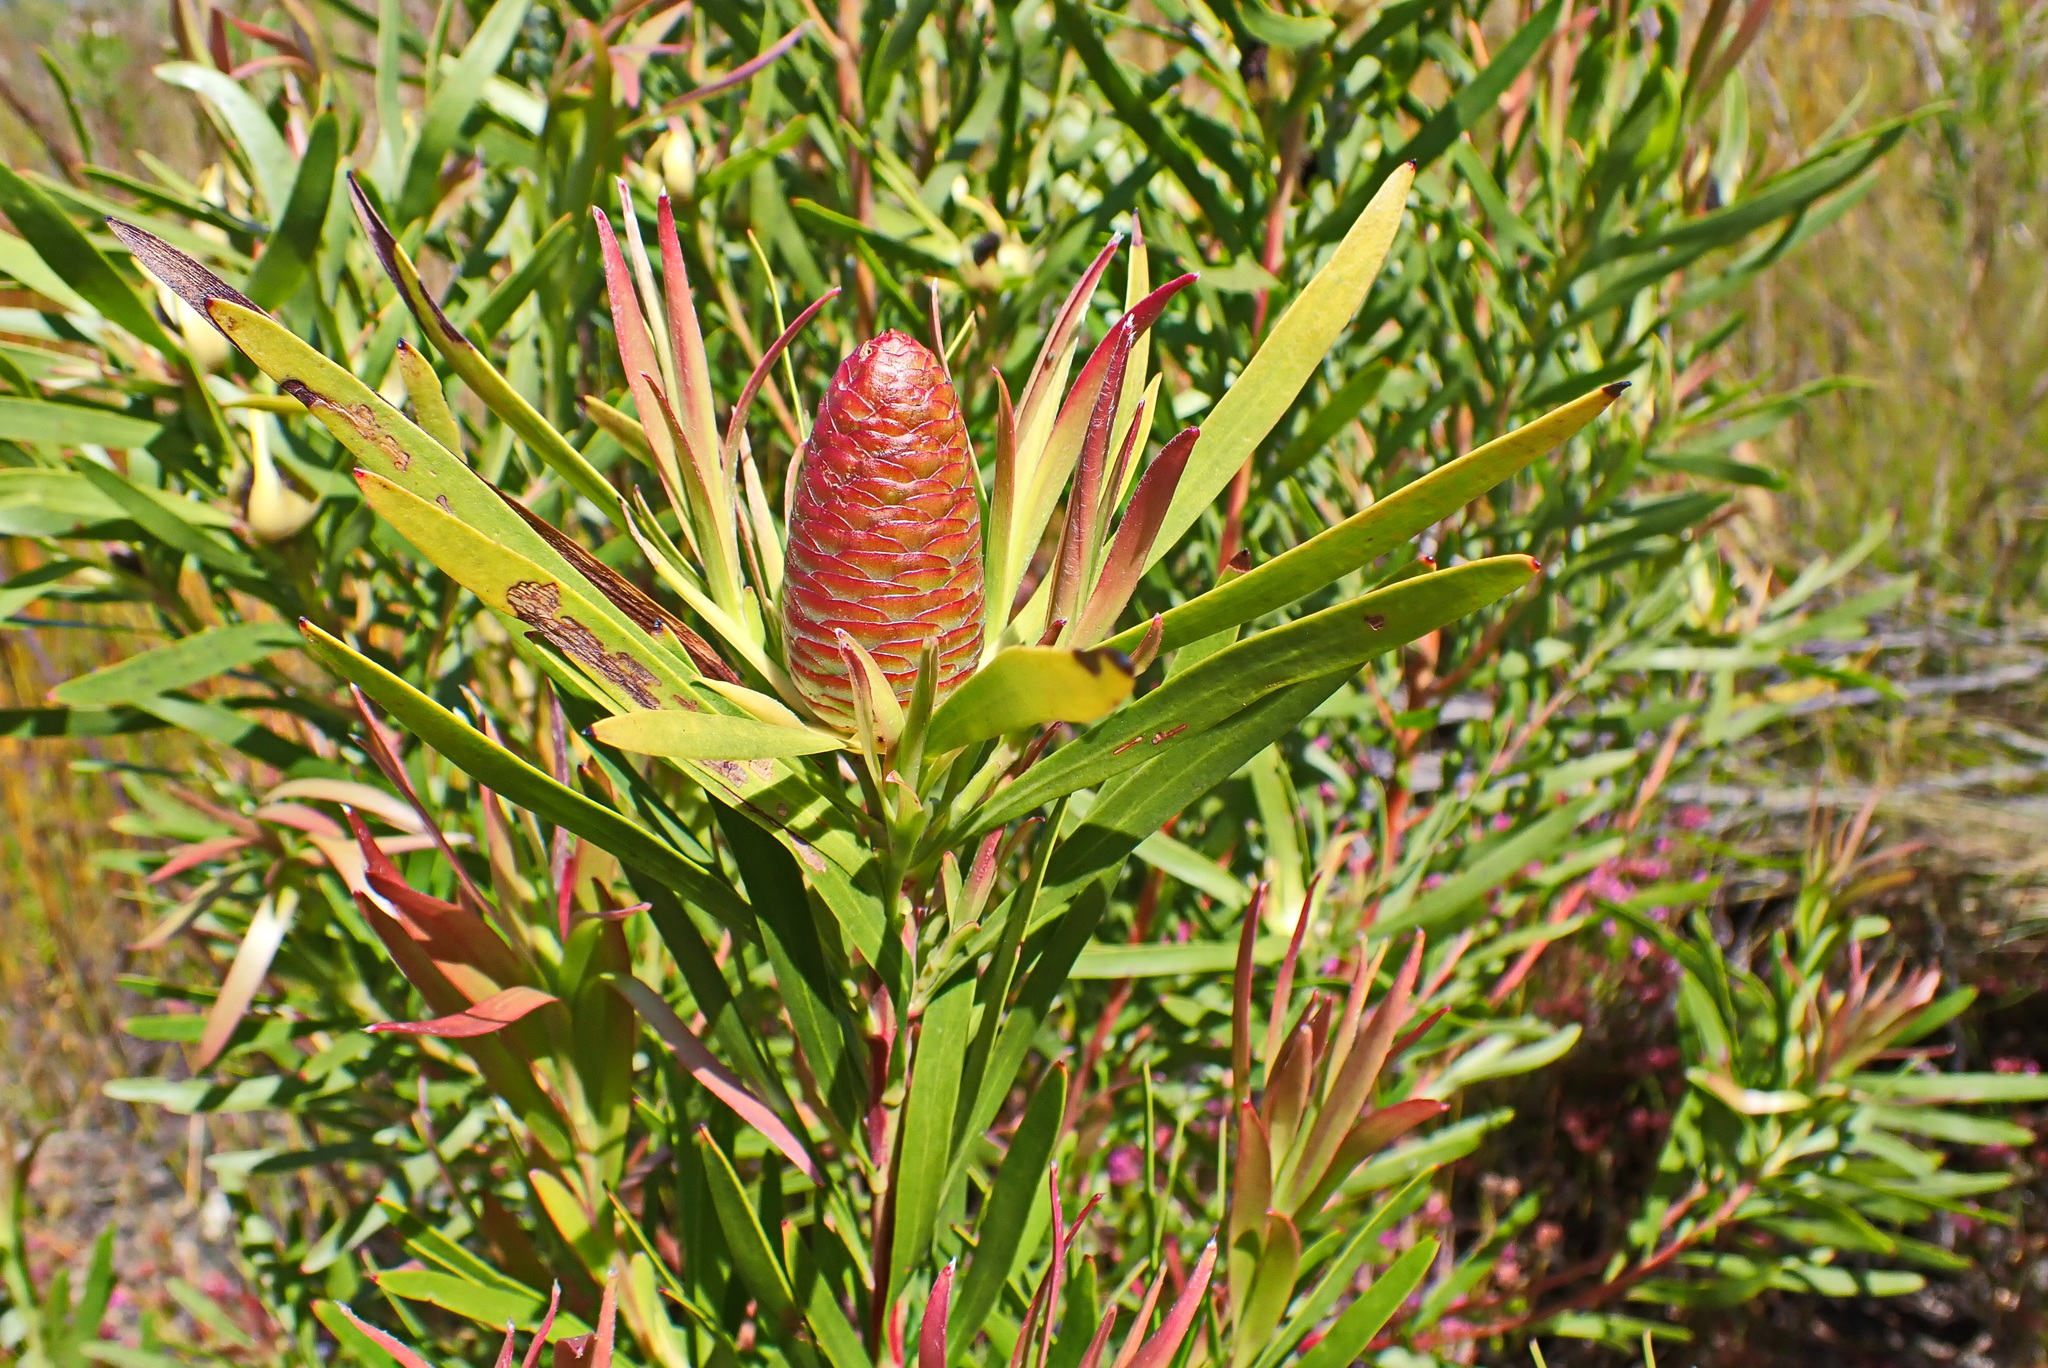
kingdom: Plantae
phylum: Tracheophyta
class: Magnoliopsida
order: Proteales
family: Proteaceae
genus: Leucadendron
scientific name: Leucadendron eucalyptifolium
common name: Gum-leaved conebush
